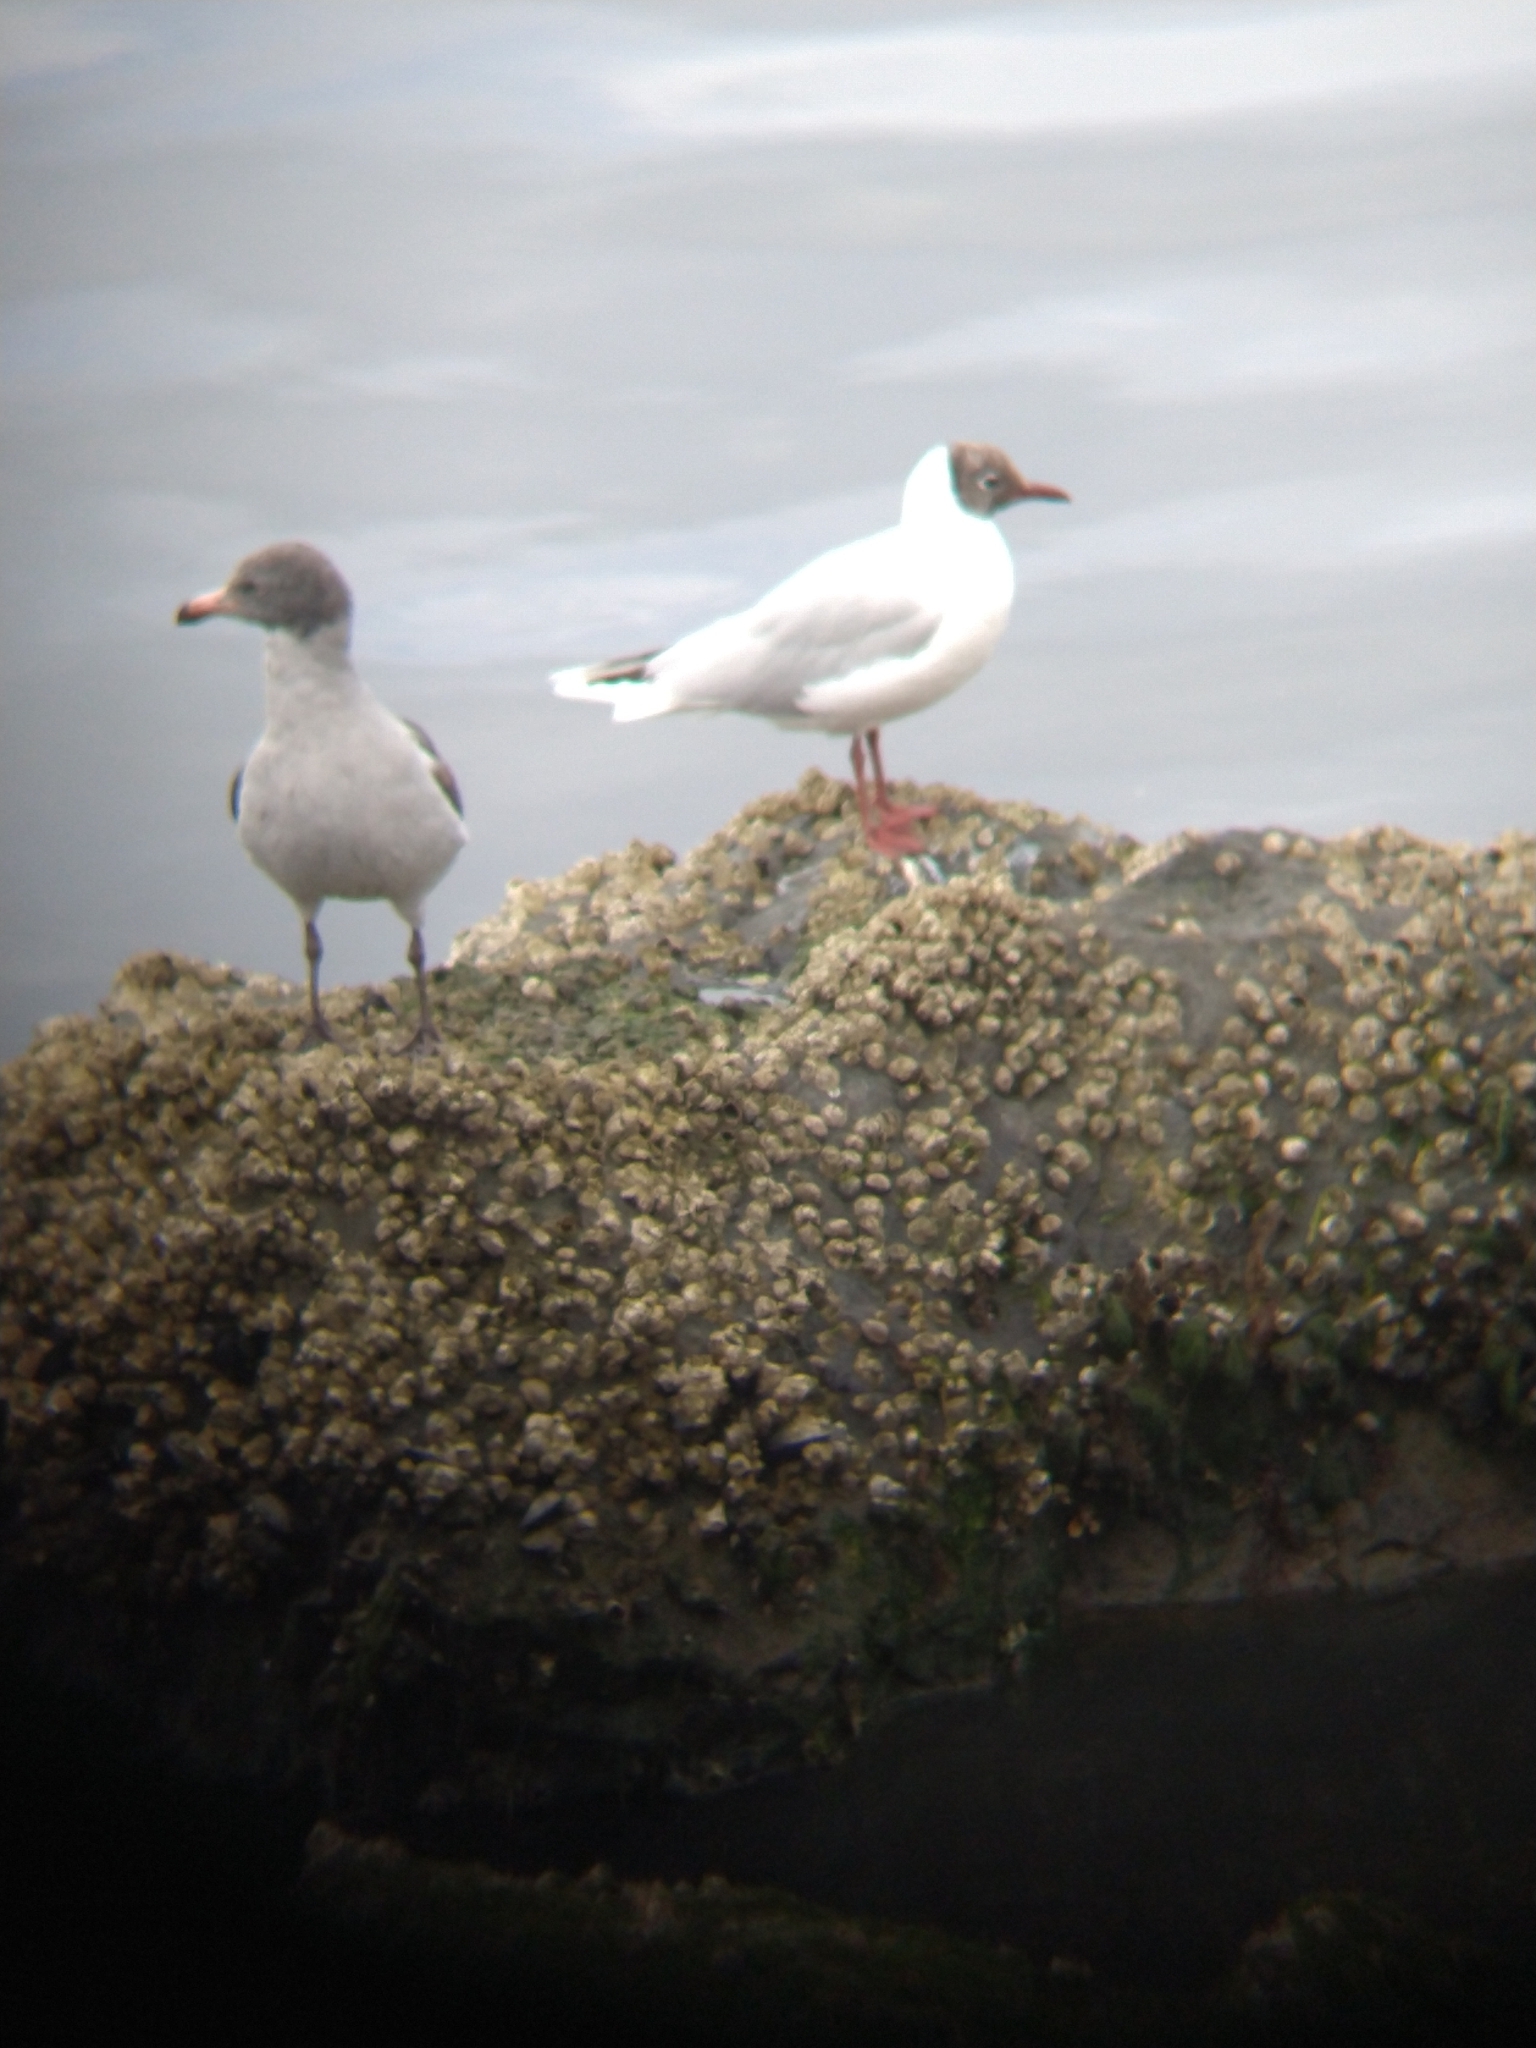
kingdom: Animalia
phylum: Chordata
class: Aves
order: Charadriiformes
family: Laridae
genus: Chroicocephalus
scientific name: Chroicocephalus maculipennis
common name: Brown-hooded gull
